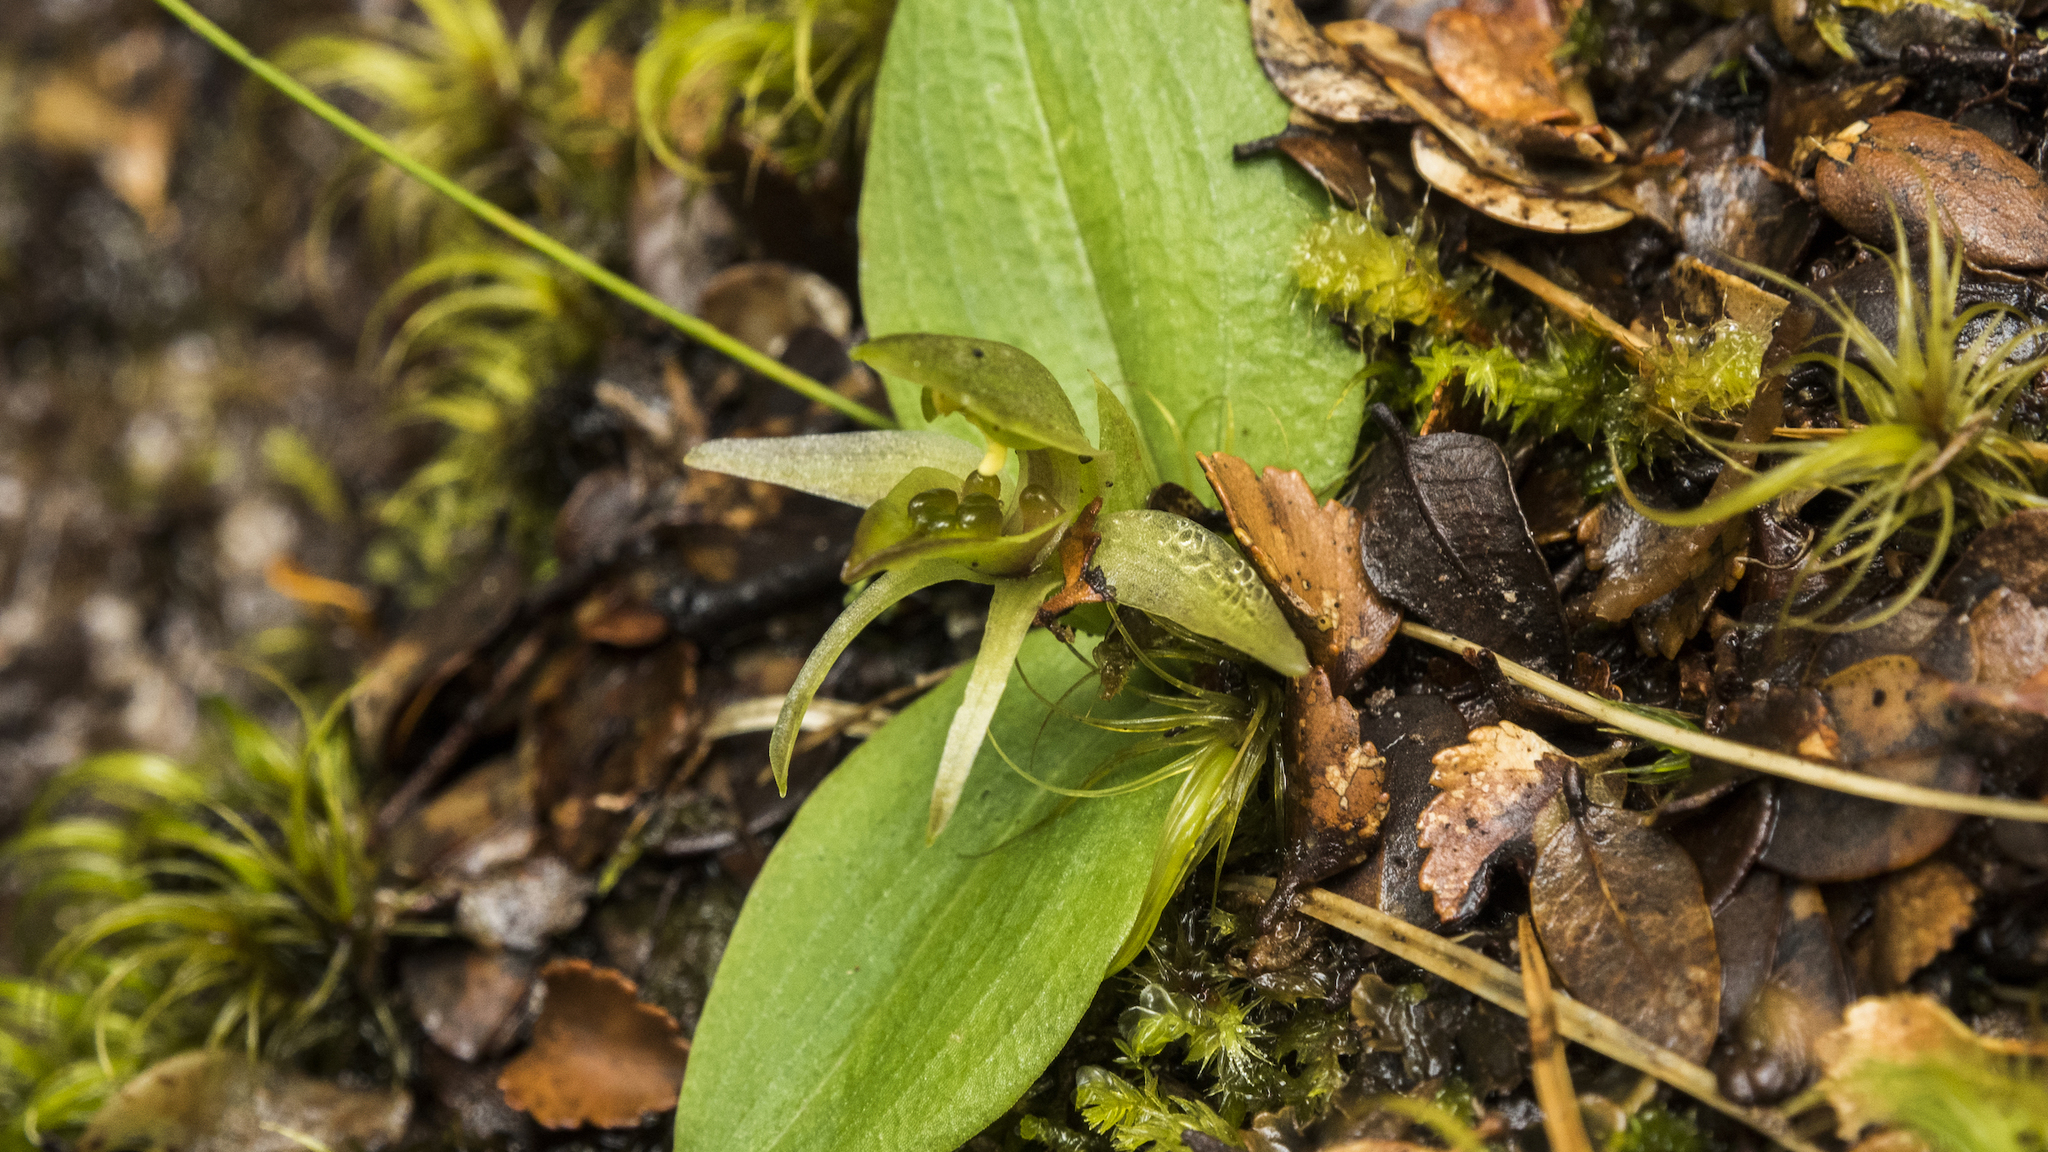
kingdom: Plantae
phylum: Tracheophyta
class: Liliopsida
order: Asparagales
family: Orchidaceae
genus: Chiloglottis
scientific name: Chiloglottis cornuta
